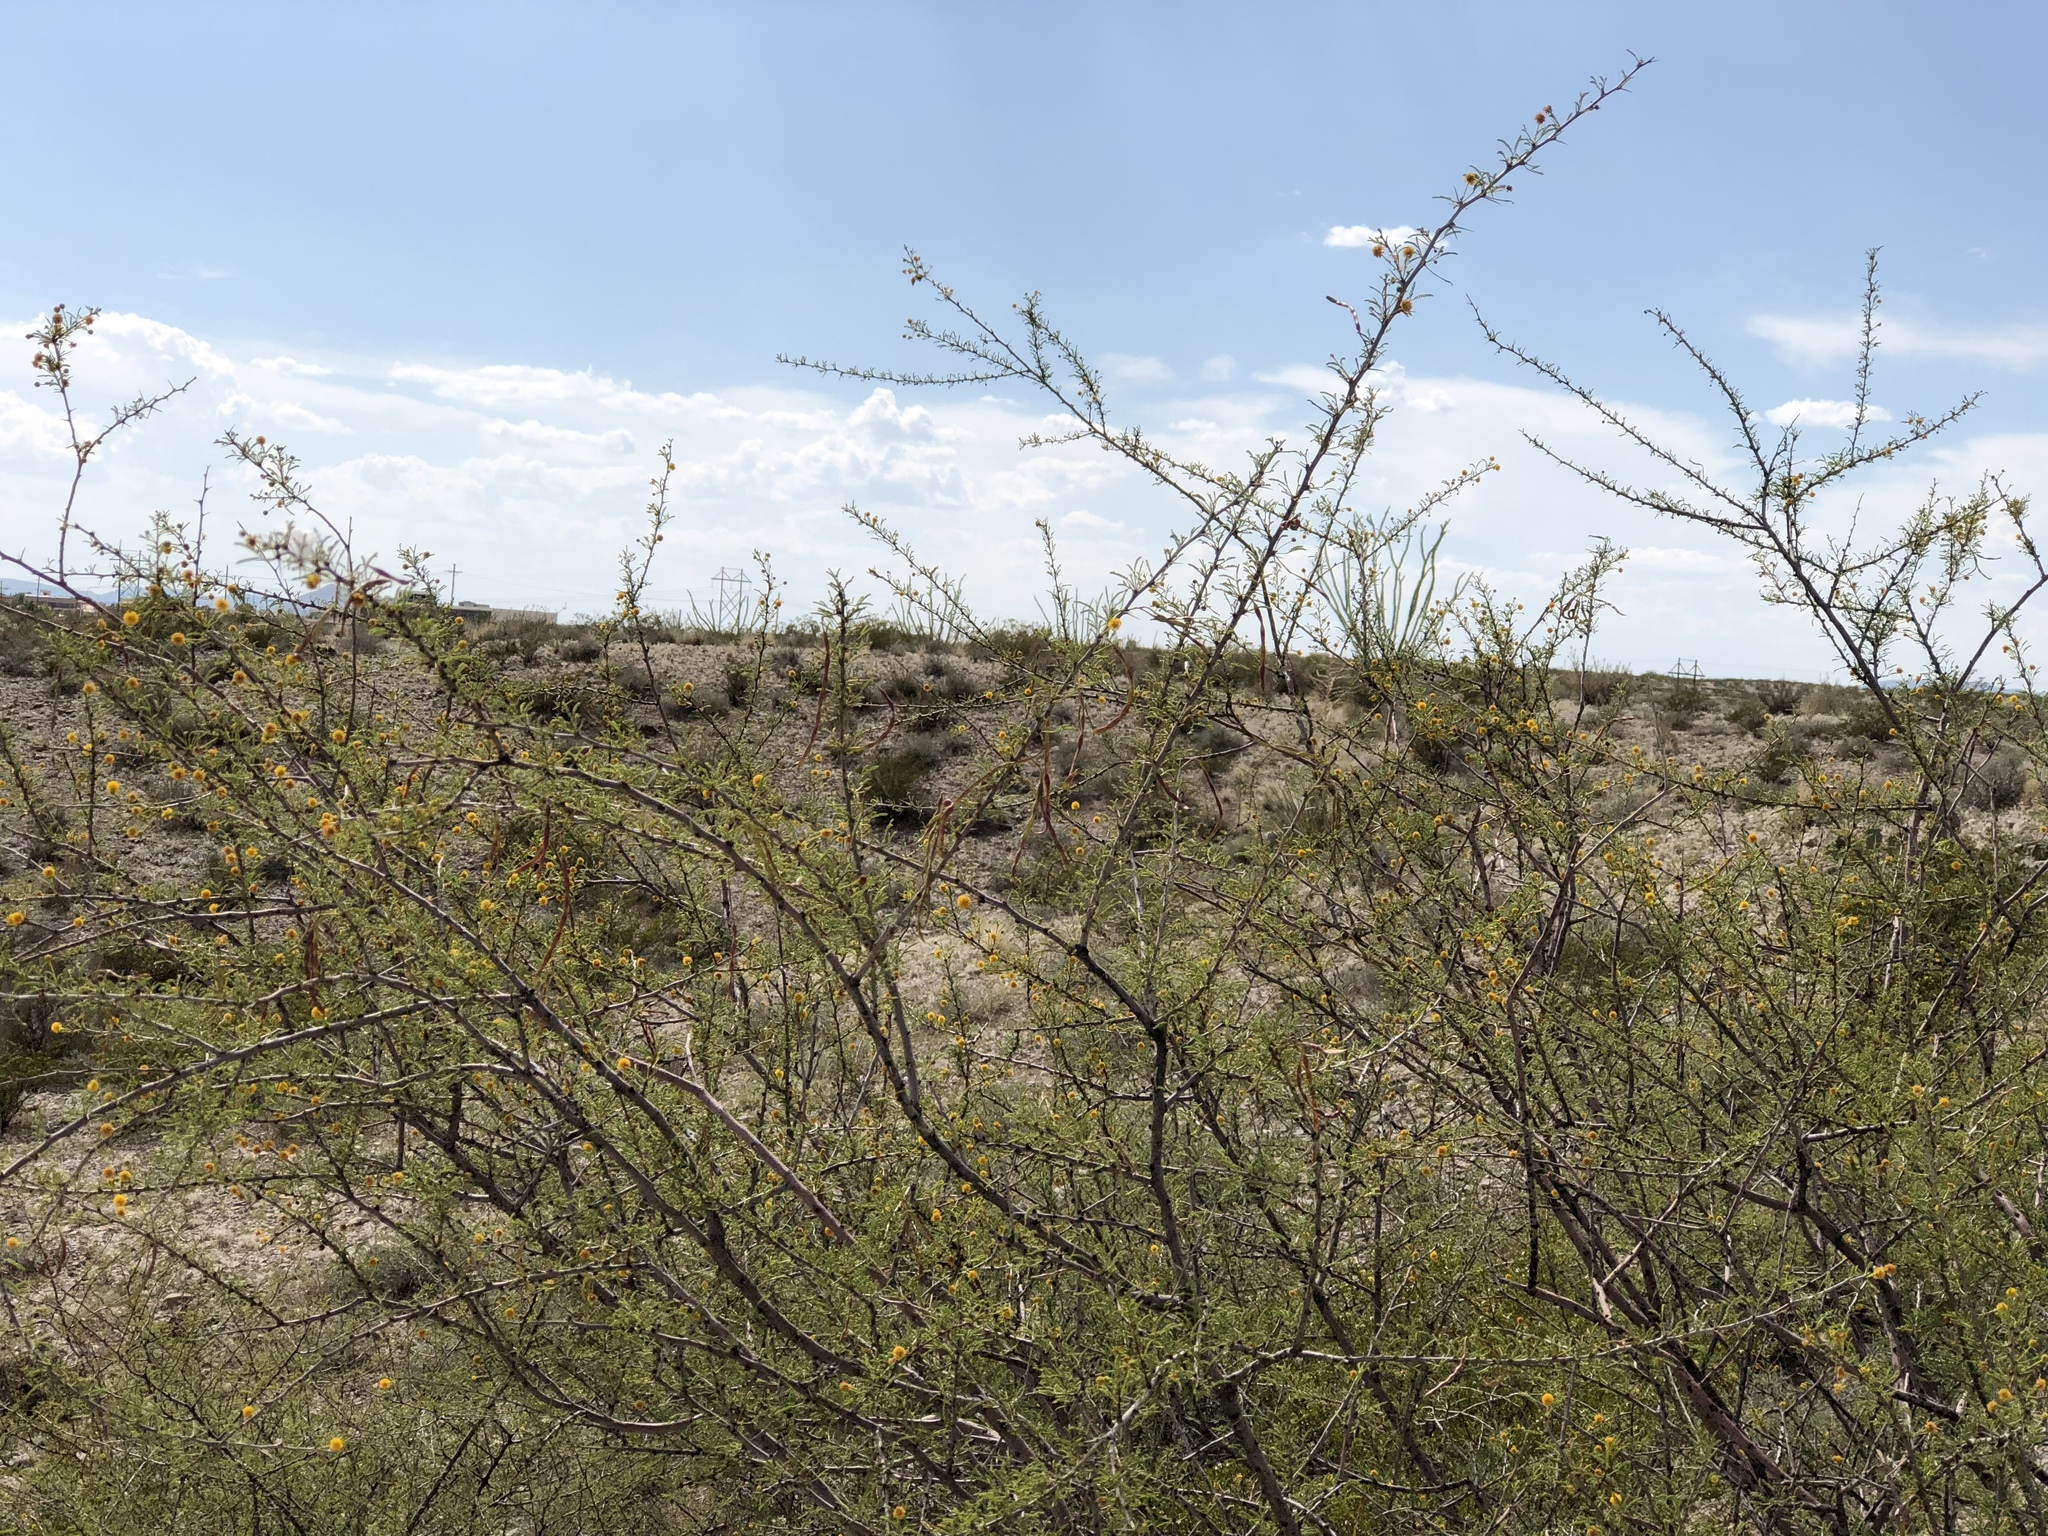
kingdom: Plantae
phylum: Tracheophyta
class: Magnoliopsida
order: Fabales
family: Fabaceae
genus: Vachellia
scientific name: Vachellia constricta
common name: Mescat acacia
